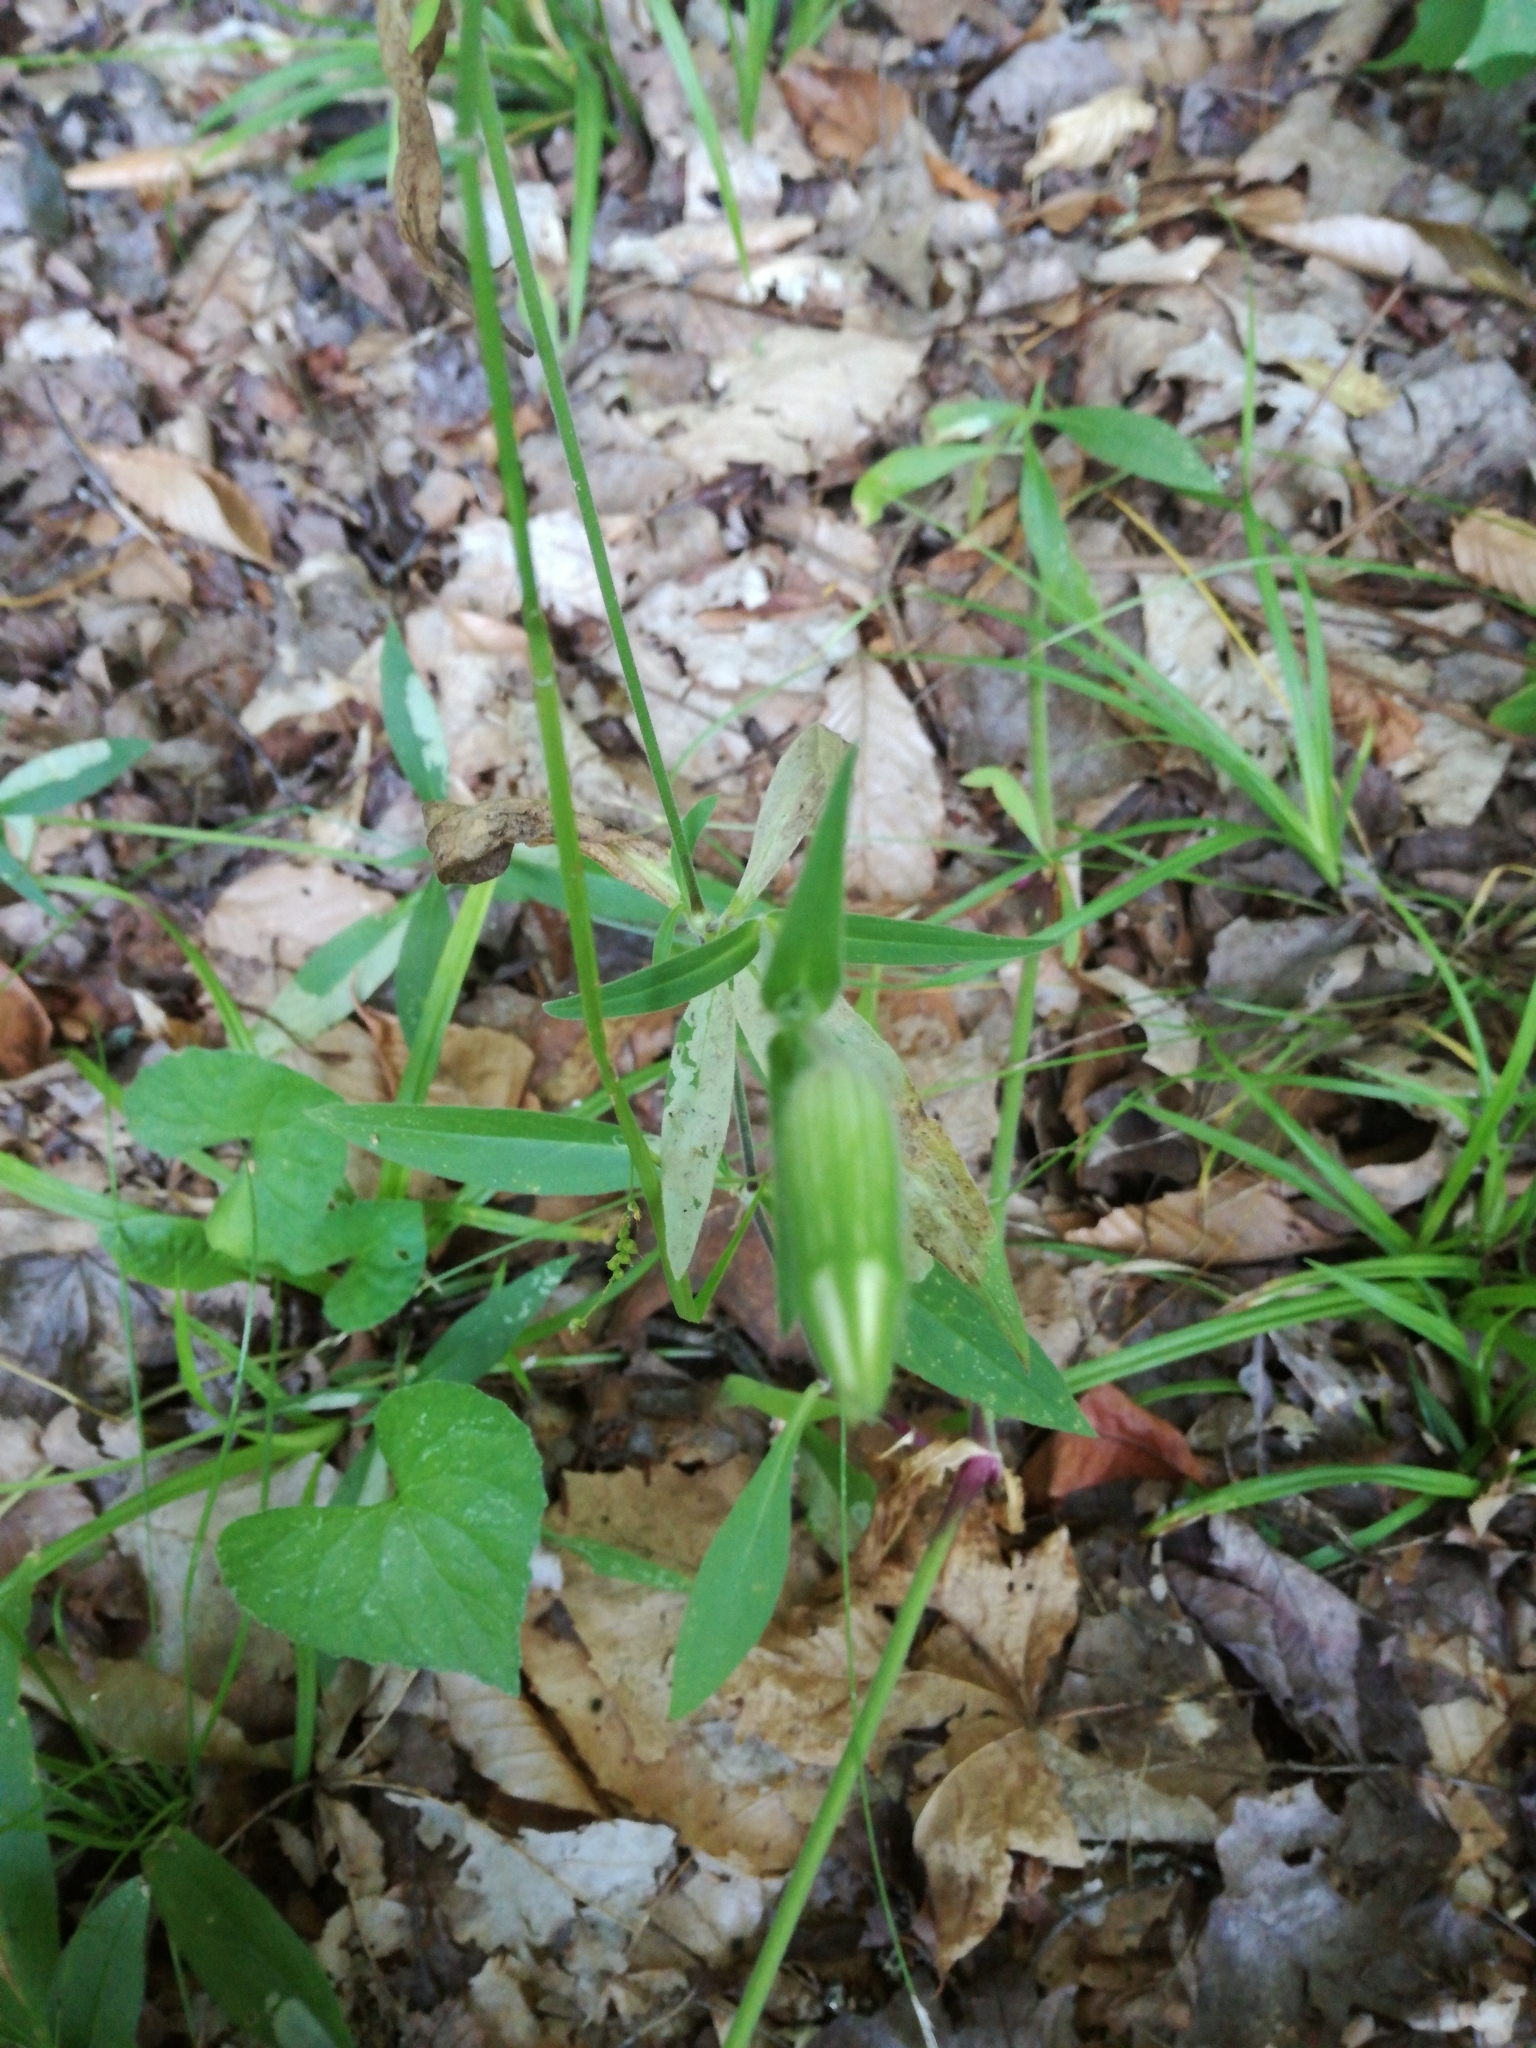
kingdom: Plantae
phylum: Tracheophyta
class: Magnoliopsida
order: Caryophyllales
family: Caryophyllaceae
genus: Silene
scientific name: Silene latifolia
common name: White campion
